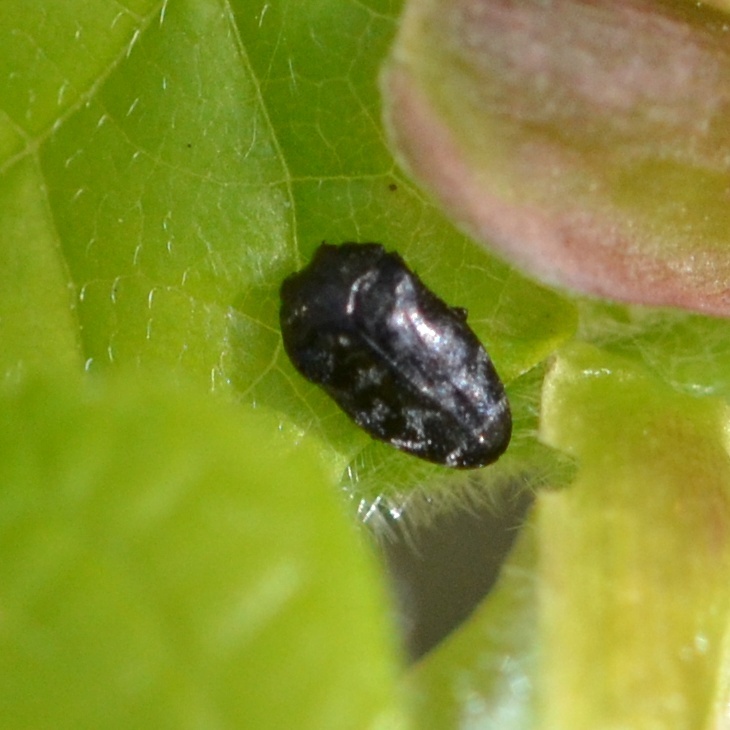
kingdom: Animalia
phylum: Arthropoda
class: Insecta
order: Coleoptera
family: Buprestidae
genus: Trachys
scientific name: Trachys minutus
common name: Metallic wood-boring beetle
